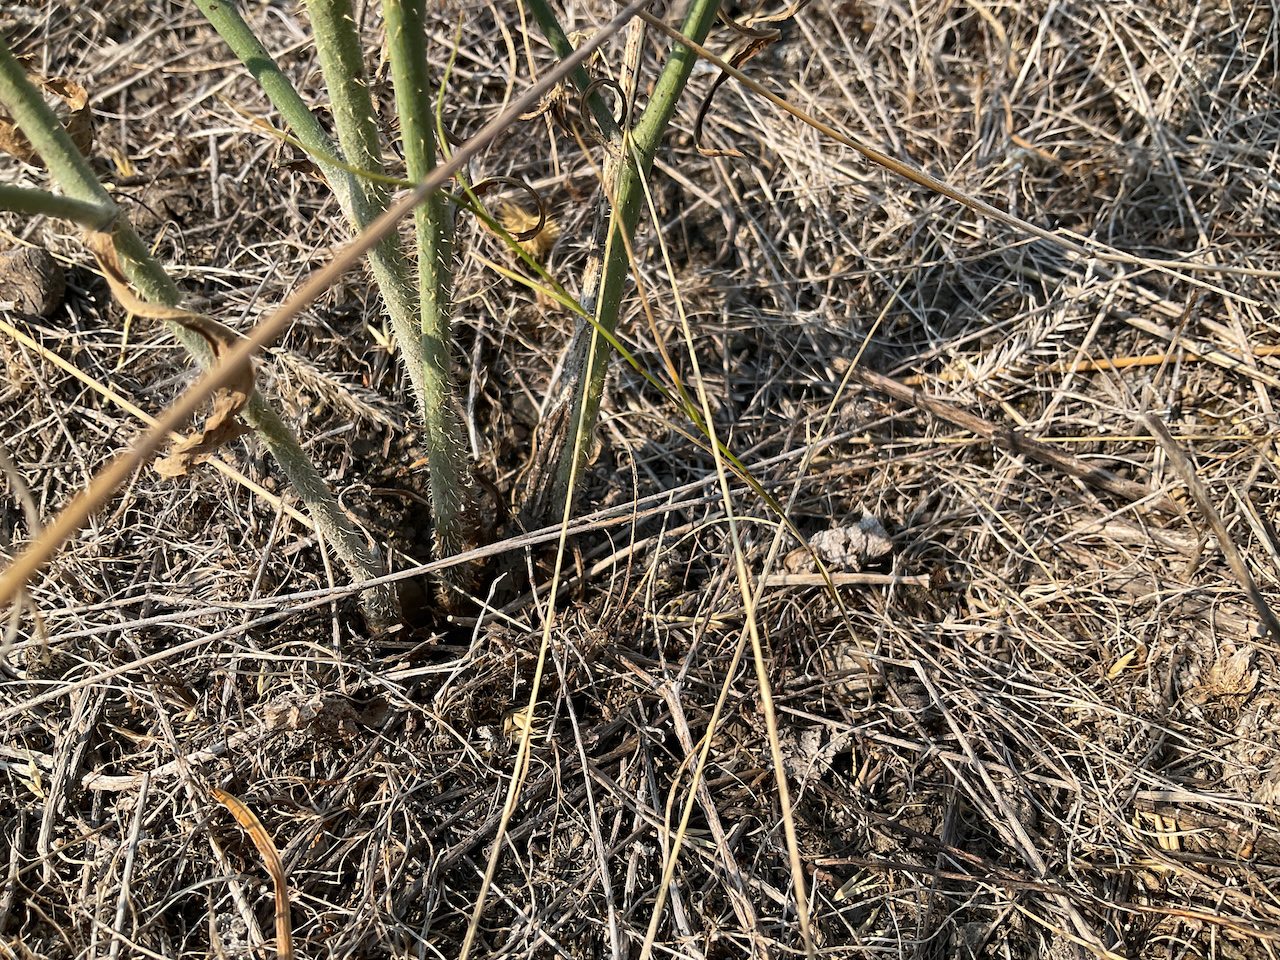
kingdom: Plantae
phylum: Tracheophyta
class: Magnoliopsida
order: Asterales
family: Asteraceae
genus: Chondrilla
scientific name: Chondrilla juncea
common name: Skeleton weed
